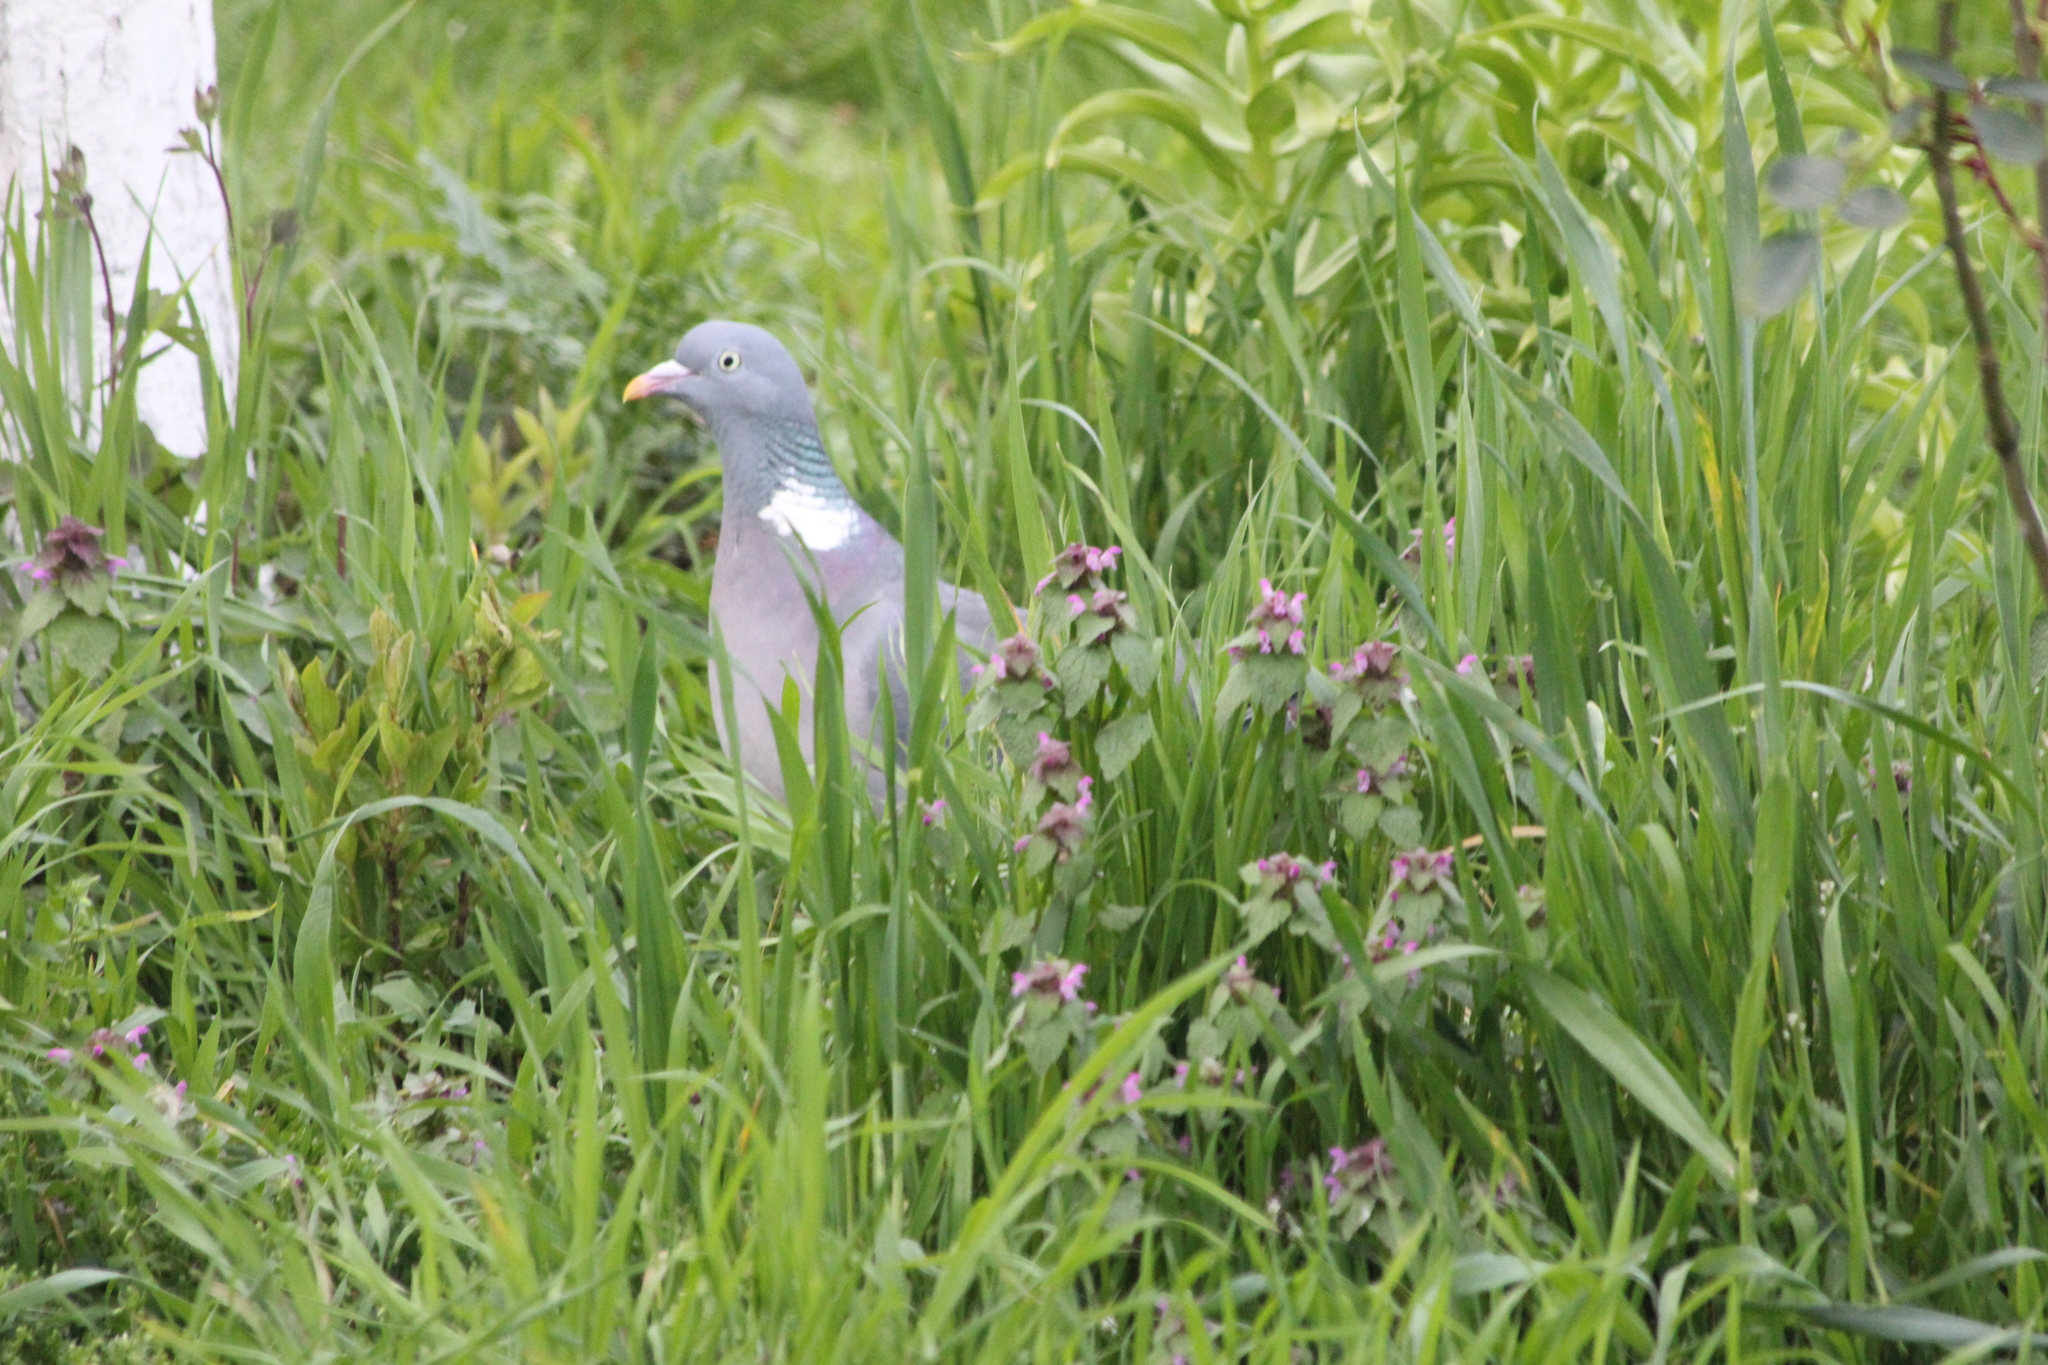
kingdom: Animalia
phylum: Chordata
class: Aves
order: Columbiformes
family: Columbidae
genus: Columba
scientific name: Columba palumbus
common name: Common wood pigeon
